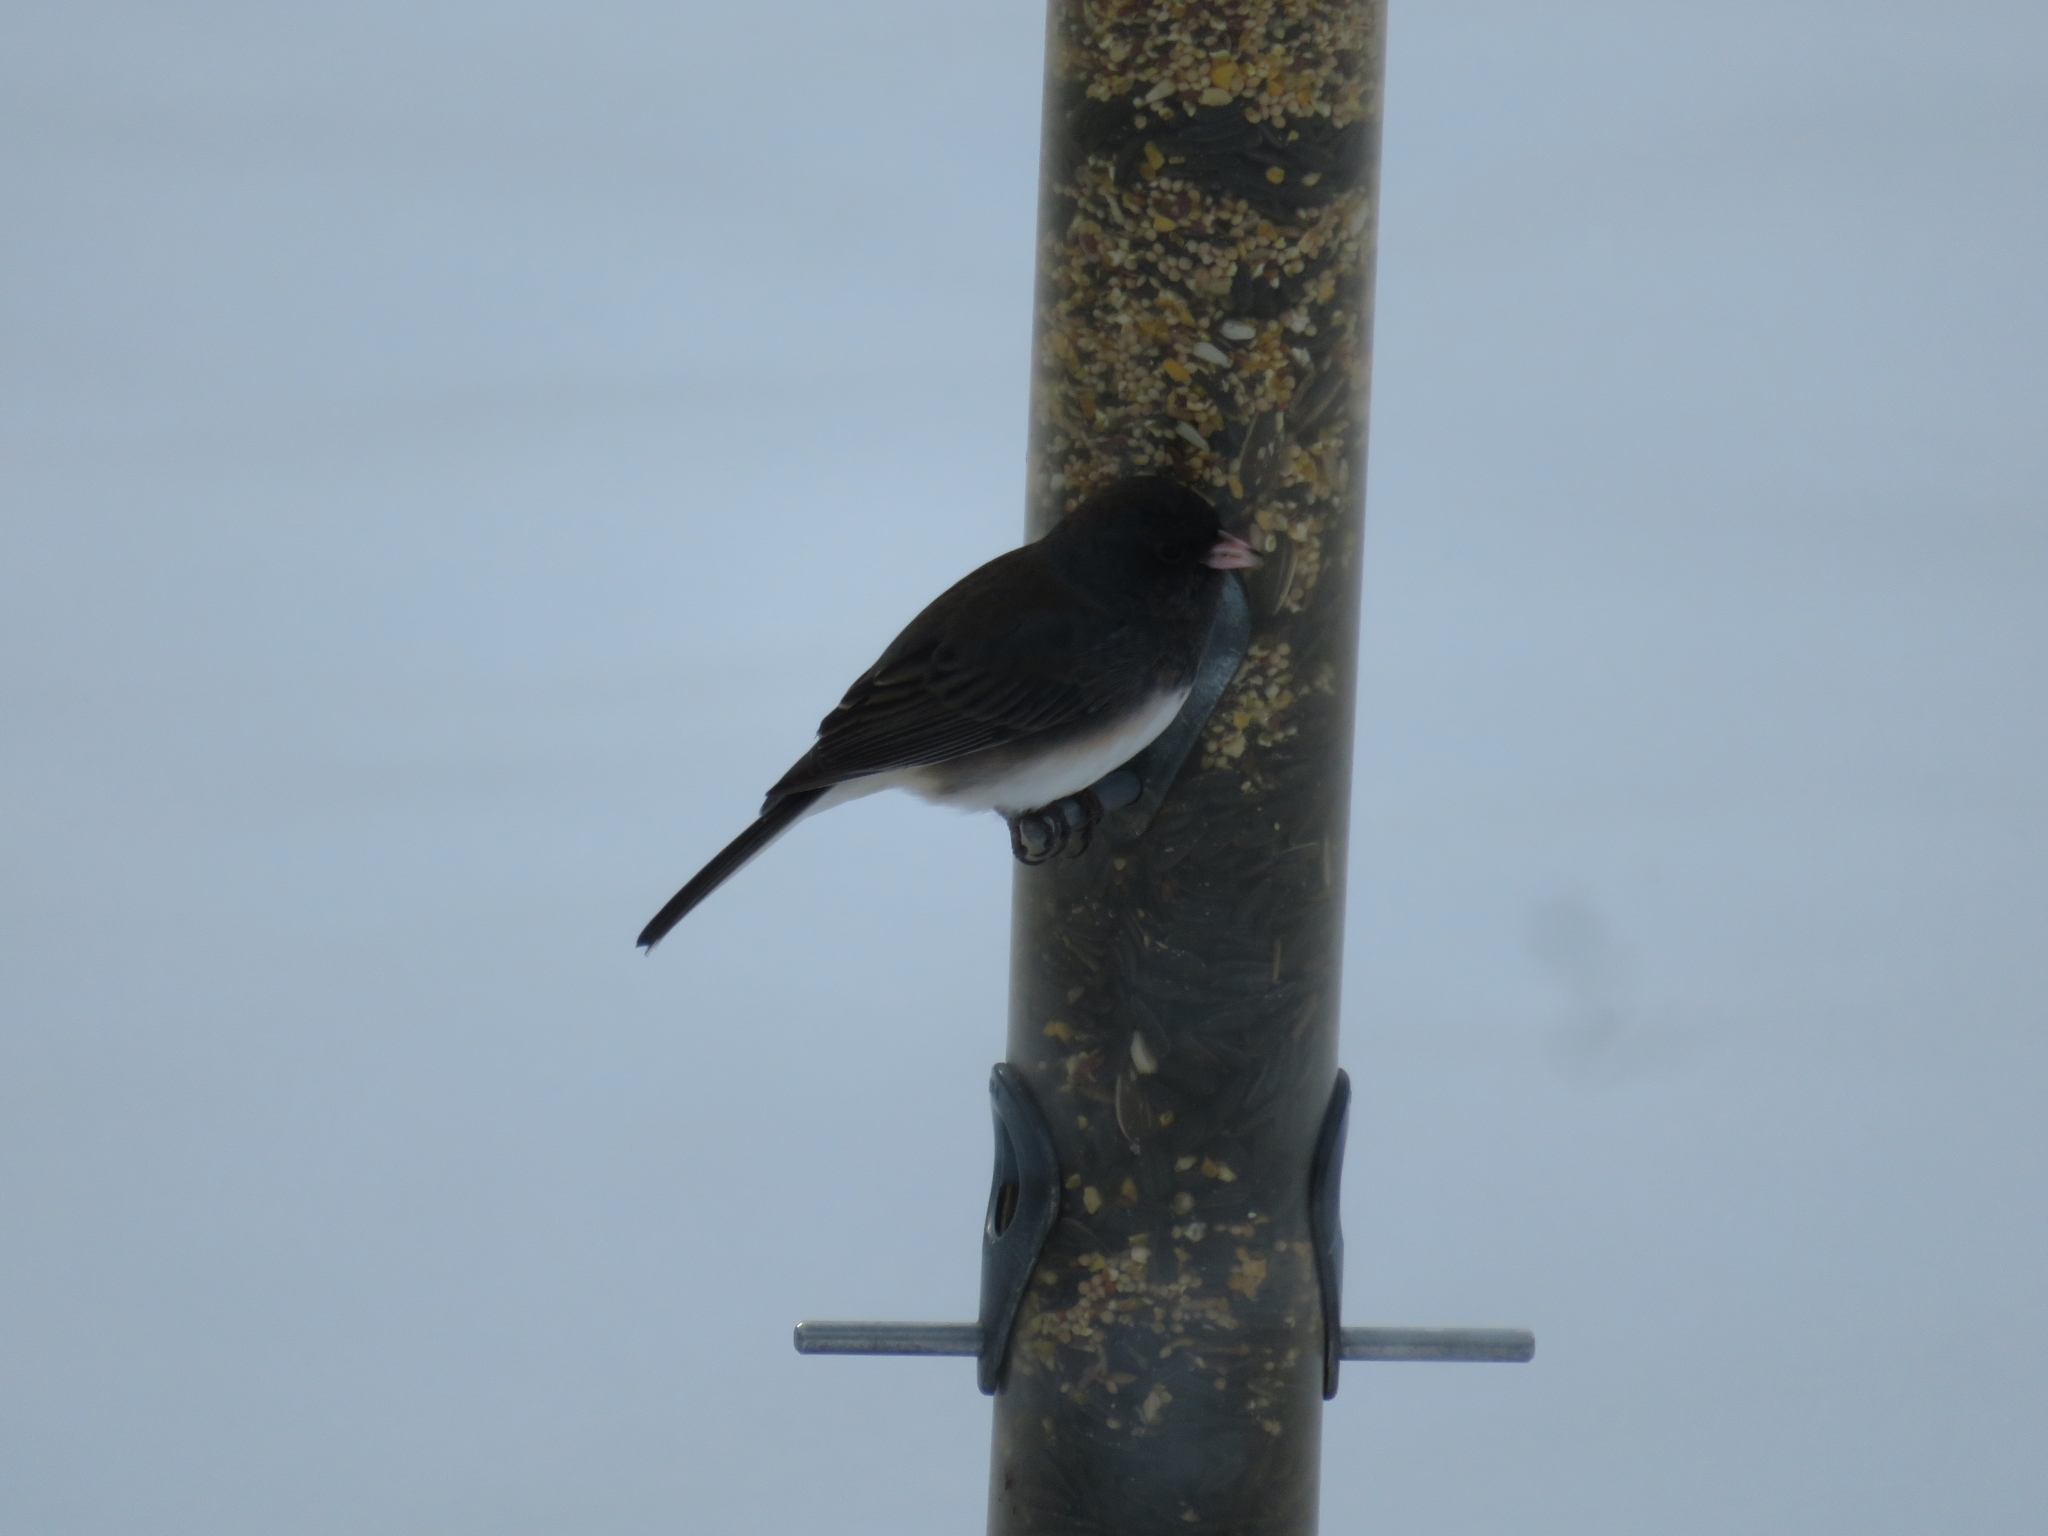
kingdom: Animalia
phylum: Chordata
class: Aves
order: Passeriformes
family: Passerellidae
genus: Junco
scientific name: Junco hyemalis
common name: Dark-eyed junco
